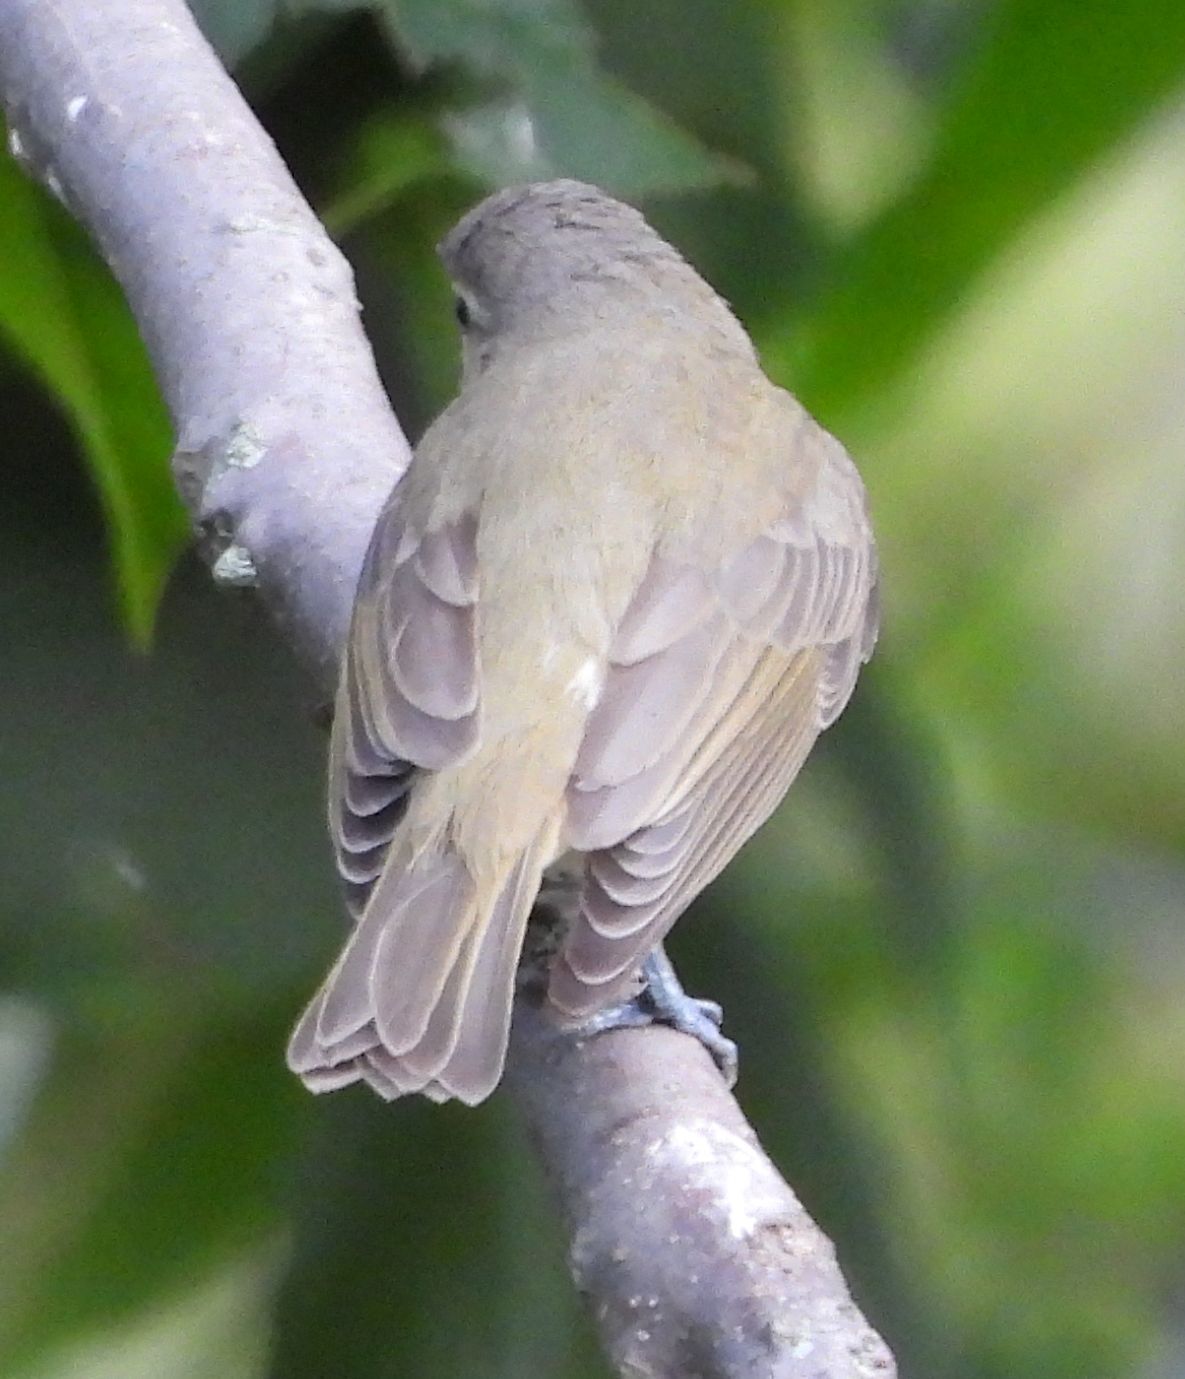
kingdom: Animalia
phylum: Chordata
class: Aves
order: Passeriformes
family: Vireonidae
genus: Vireo
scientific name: Vireo gilvus
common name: Warbling vireo
